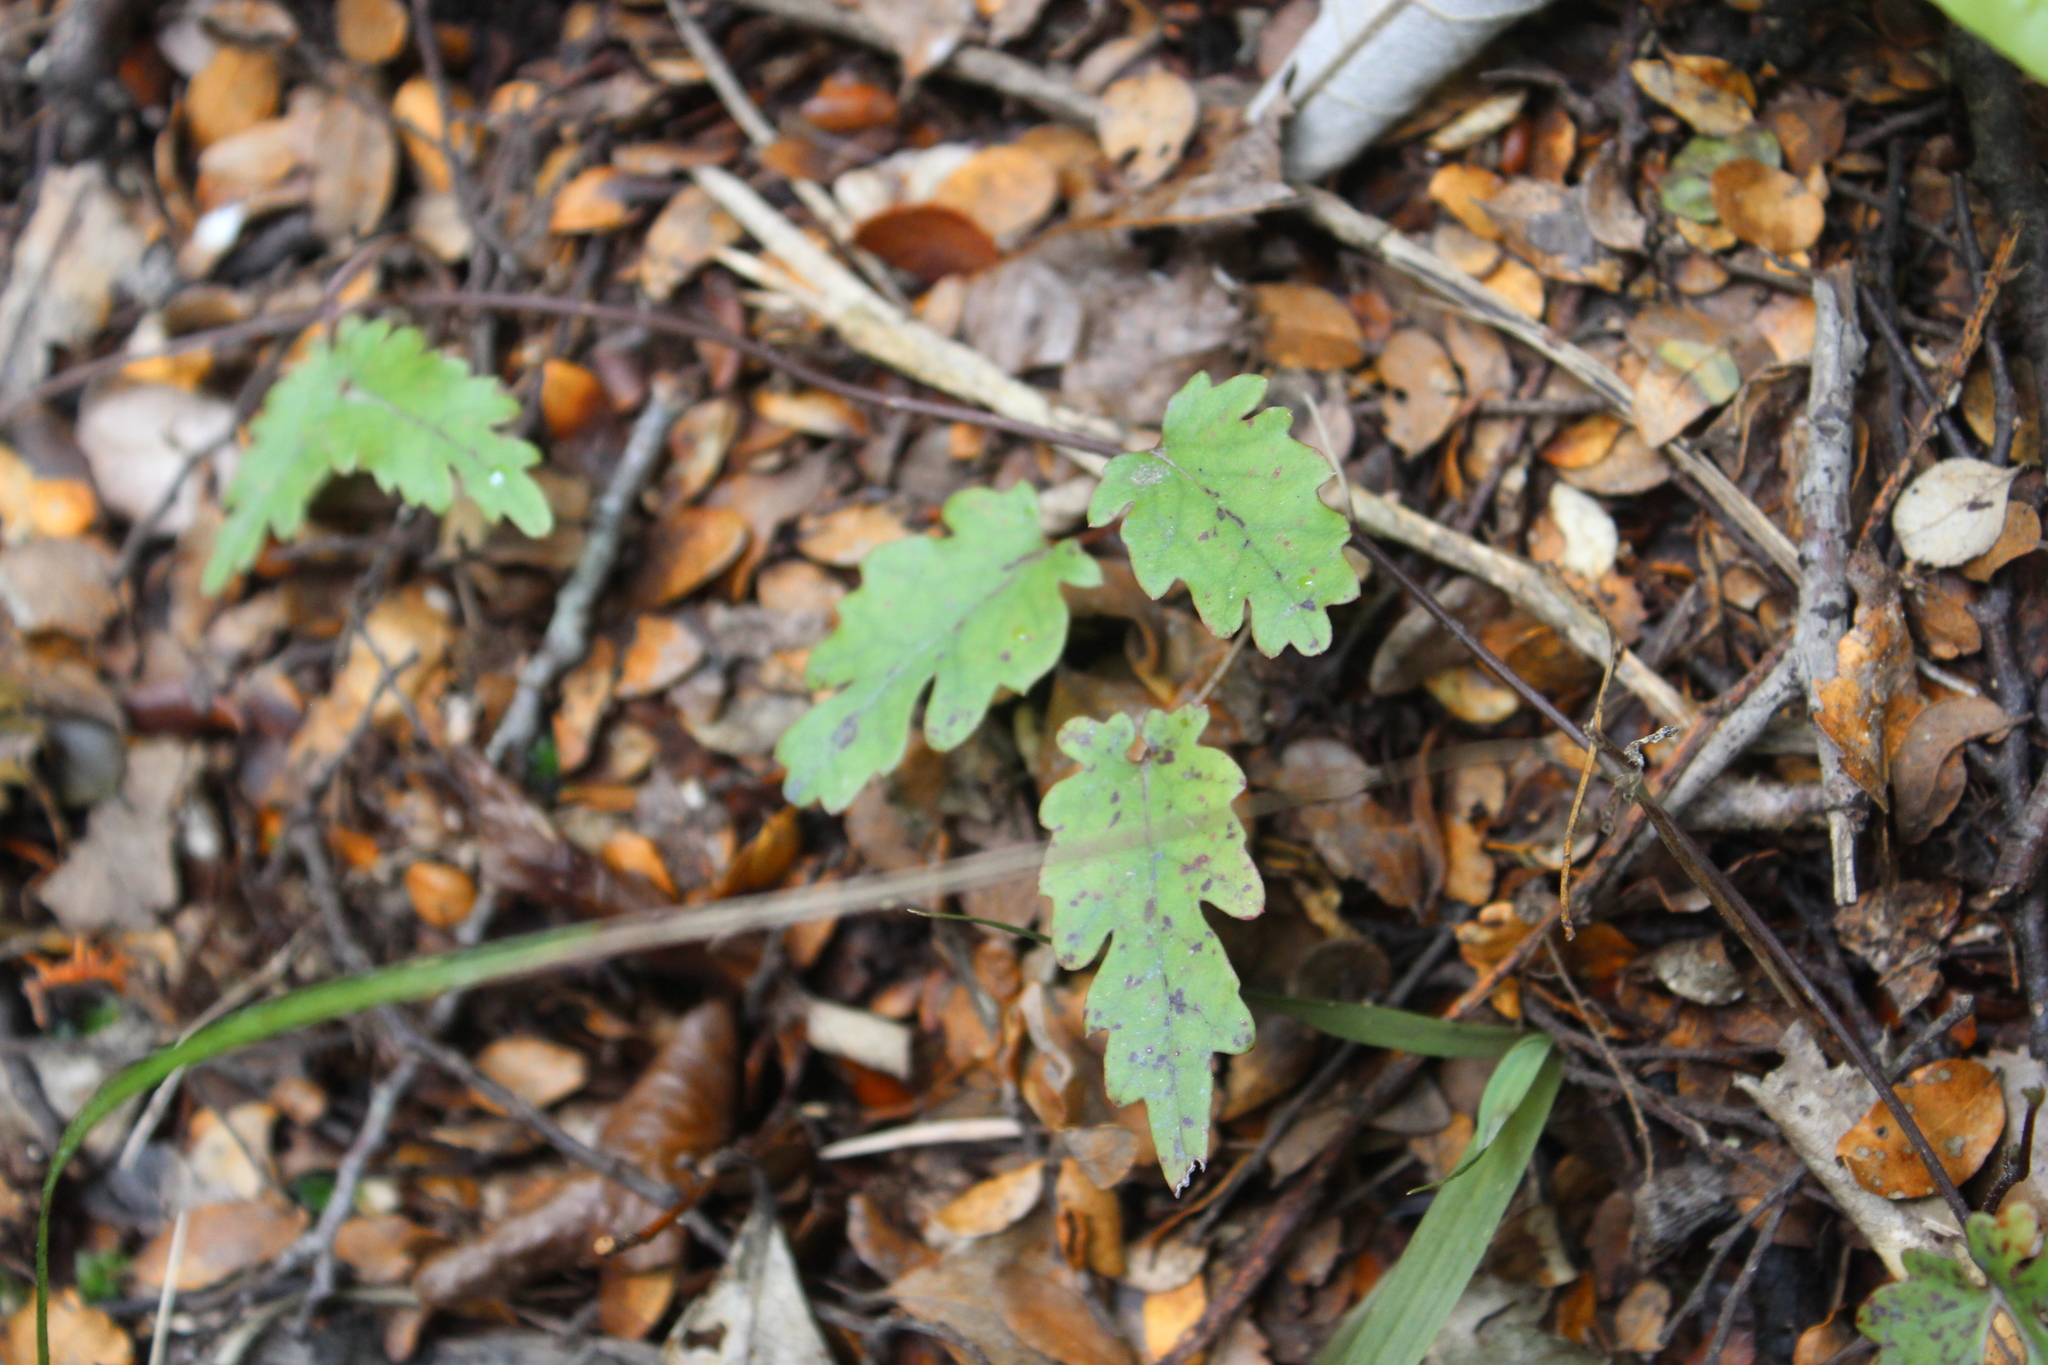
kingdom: Plantae
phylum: Tracheophyta
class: Magnoliopsida
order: Ranunculales
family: Ranunculaceae
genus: Clematis
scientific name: Clematis paniculata
